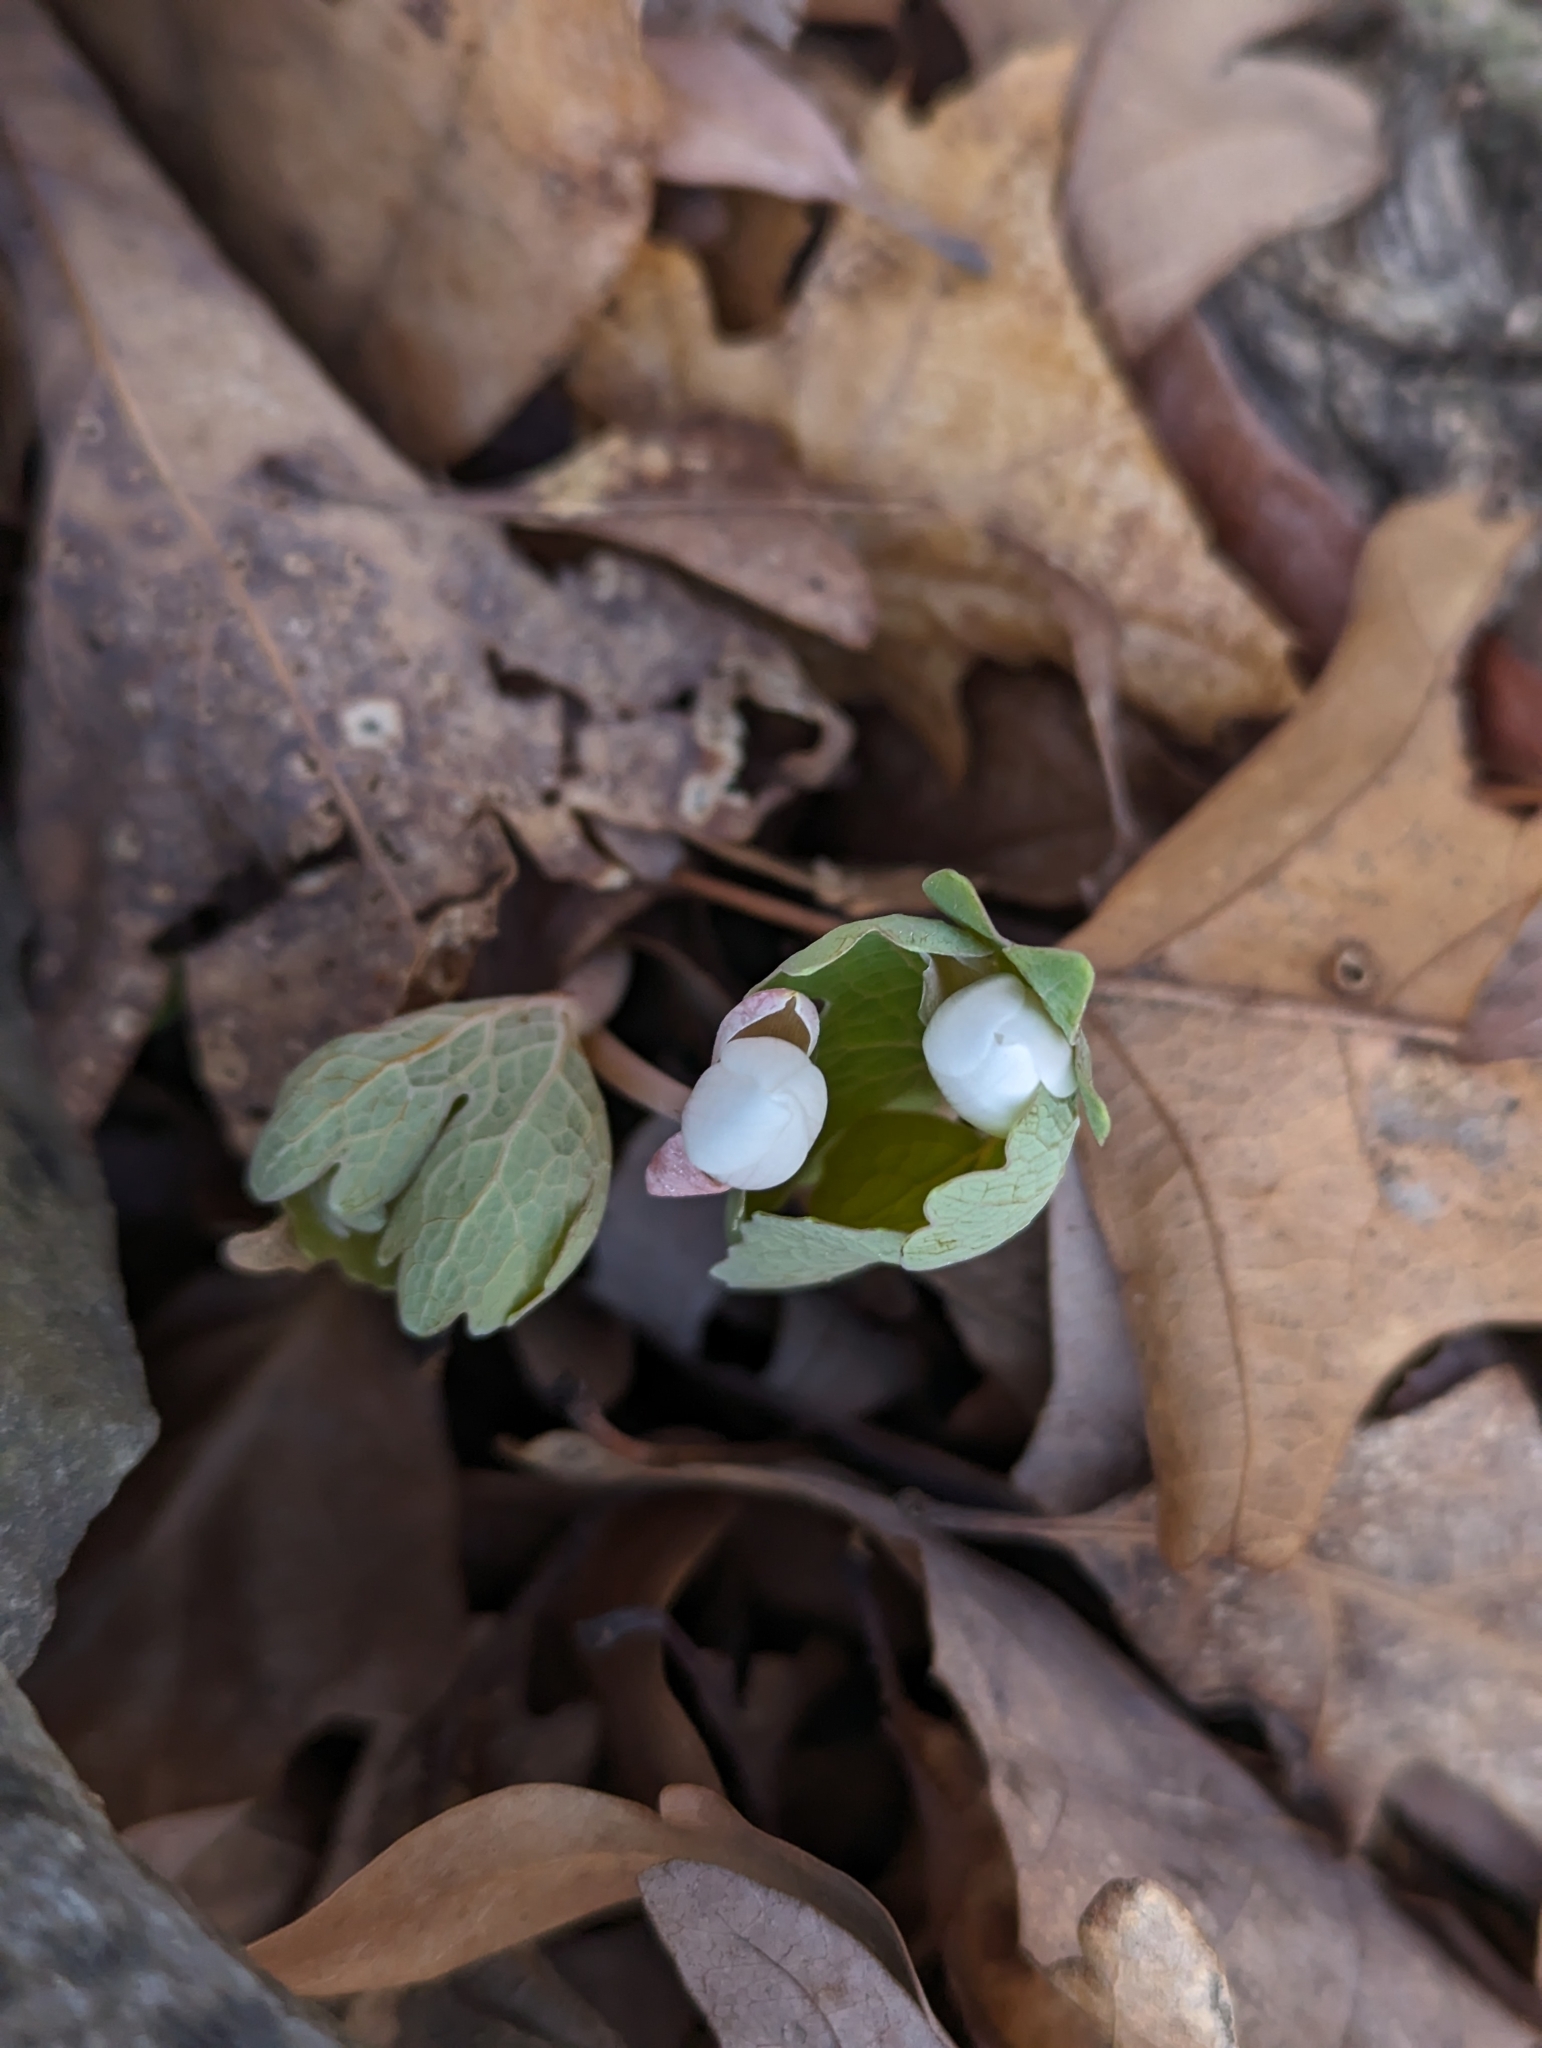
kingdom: Plantae
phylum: Tracheophyta
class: Magnoliopsida
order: Ranunculales
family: Papaveraceae
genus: Sanguinaria
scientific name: Sanguinaria canadensis
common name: Bloodroot
